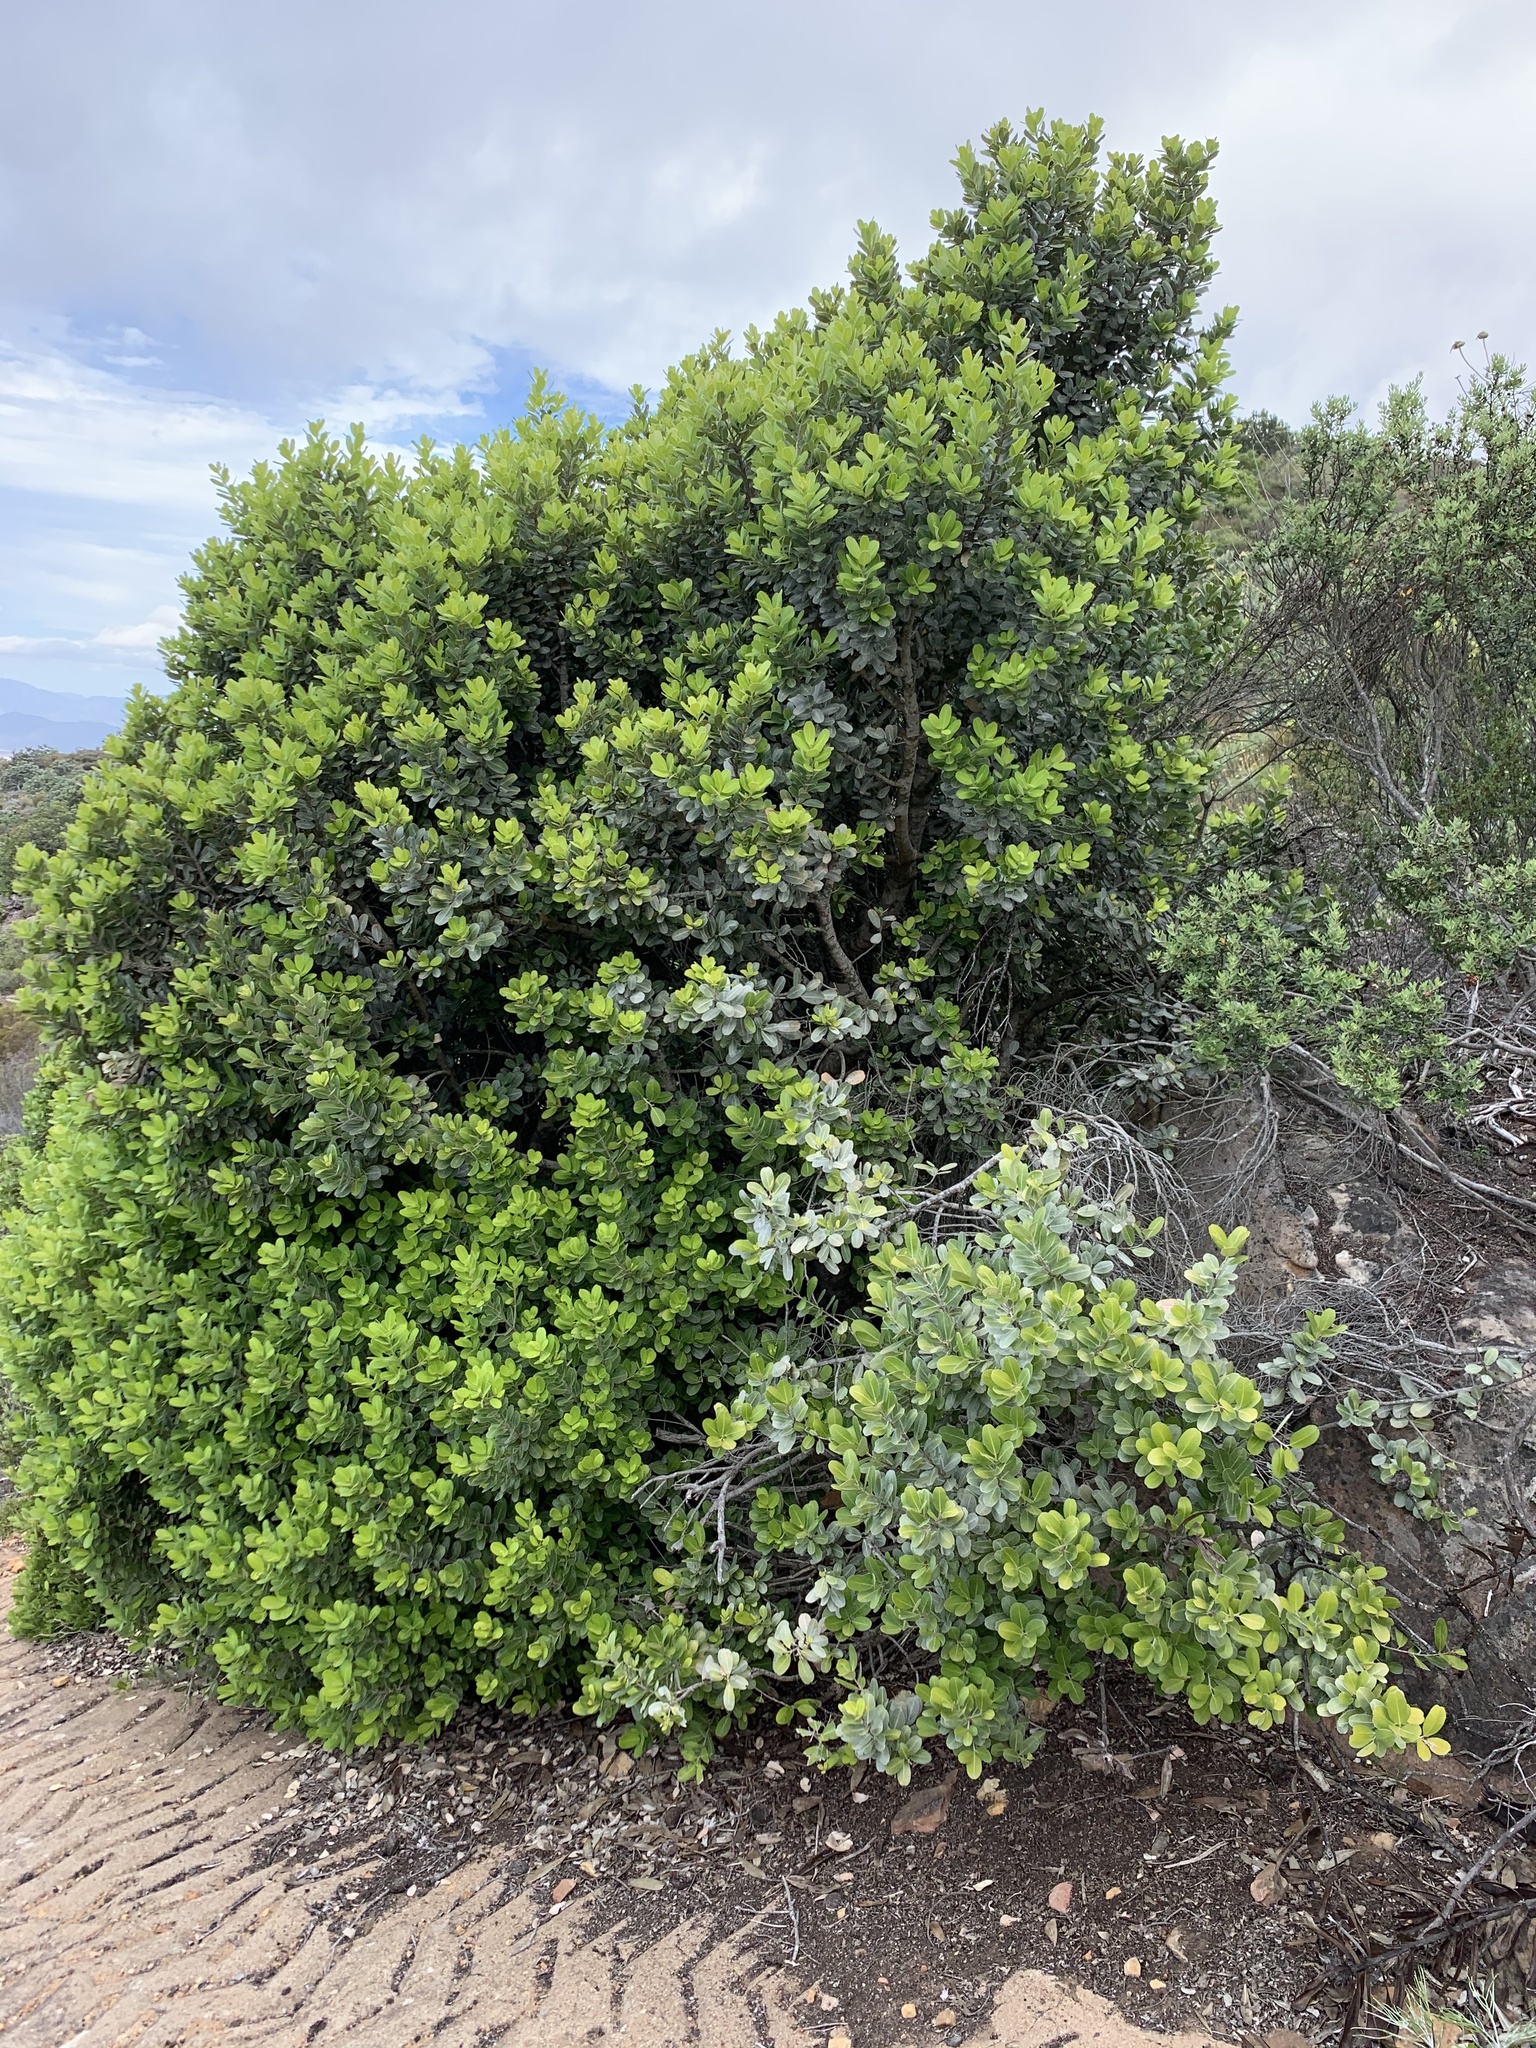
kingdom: Plantae
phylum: Tracheophyta
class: Magnoliopsida
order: Sapindales
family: Anacardiaceae
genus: Heeria
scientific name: Heeria argentea
